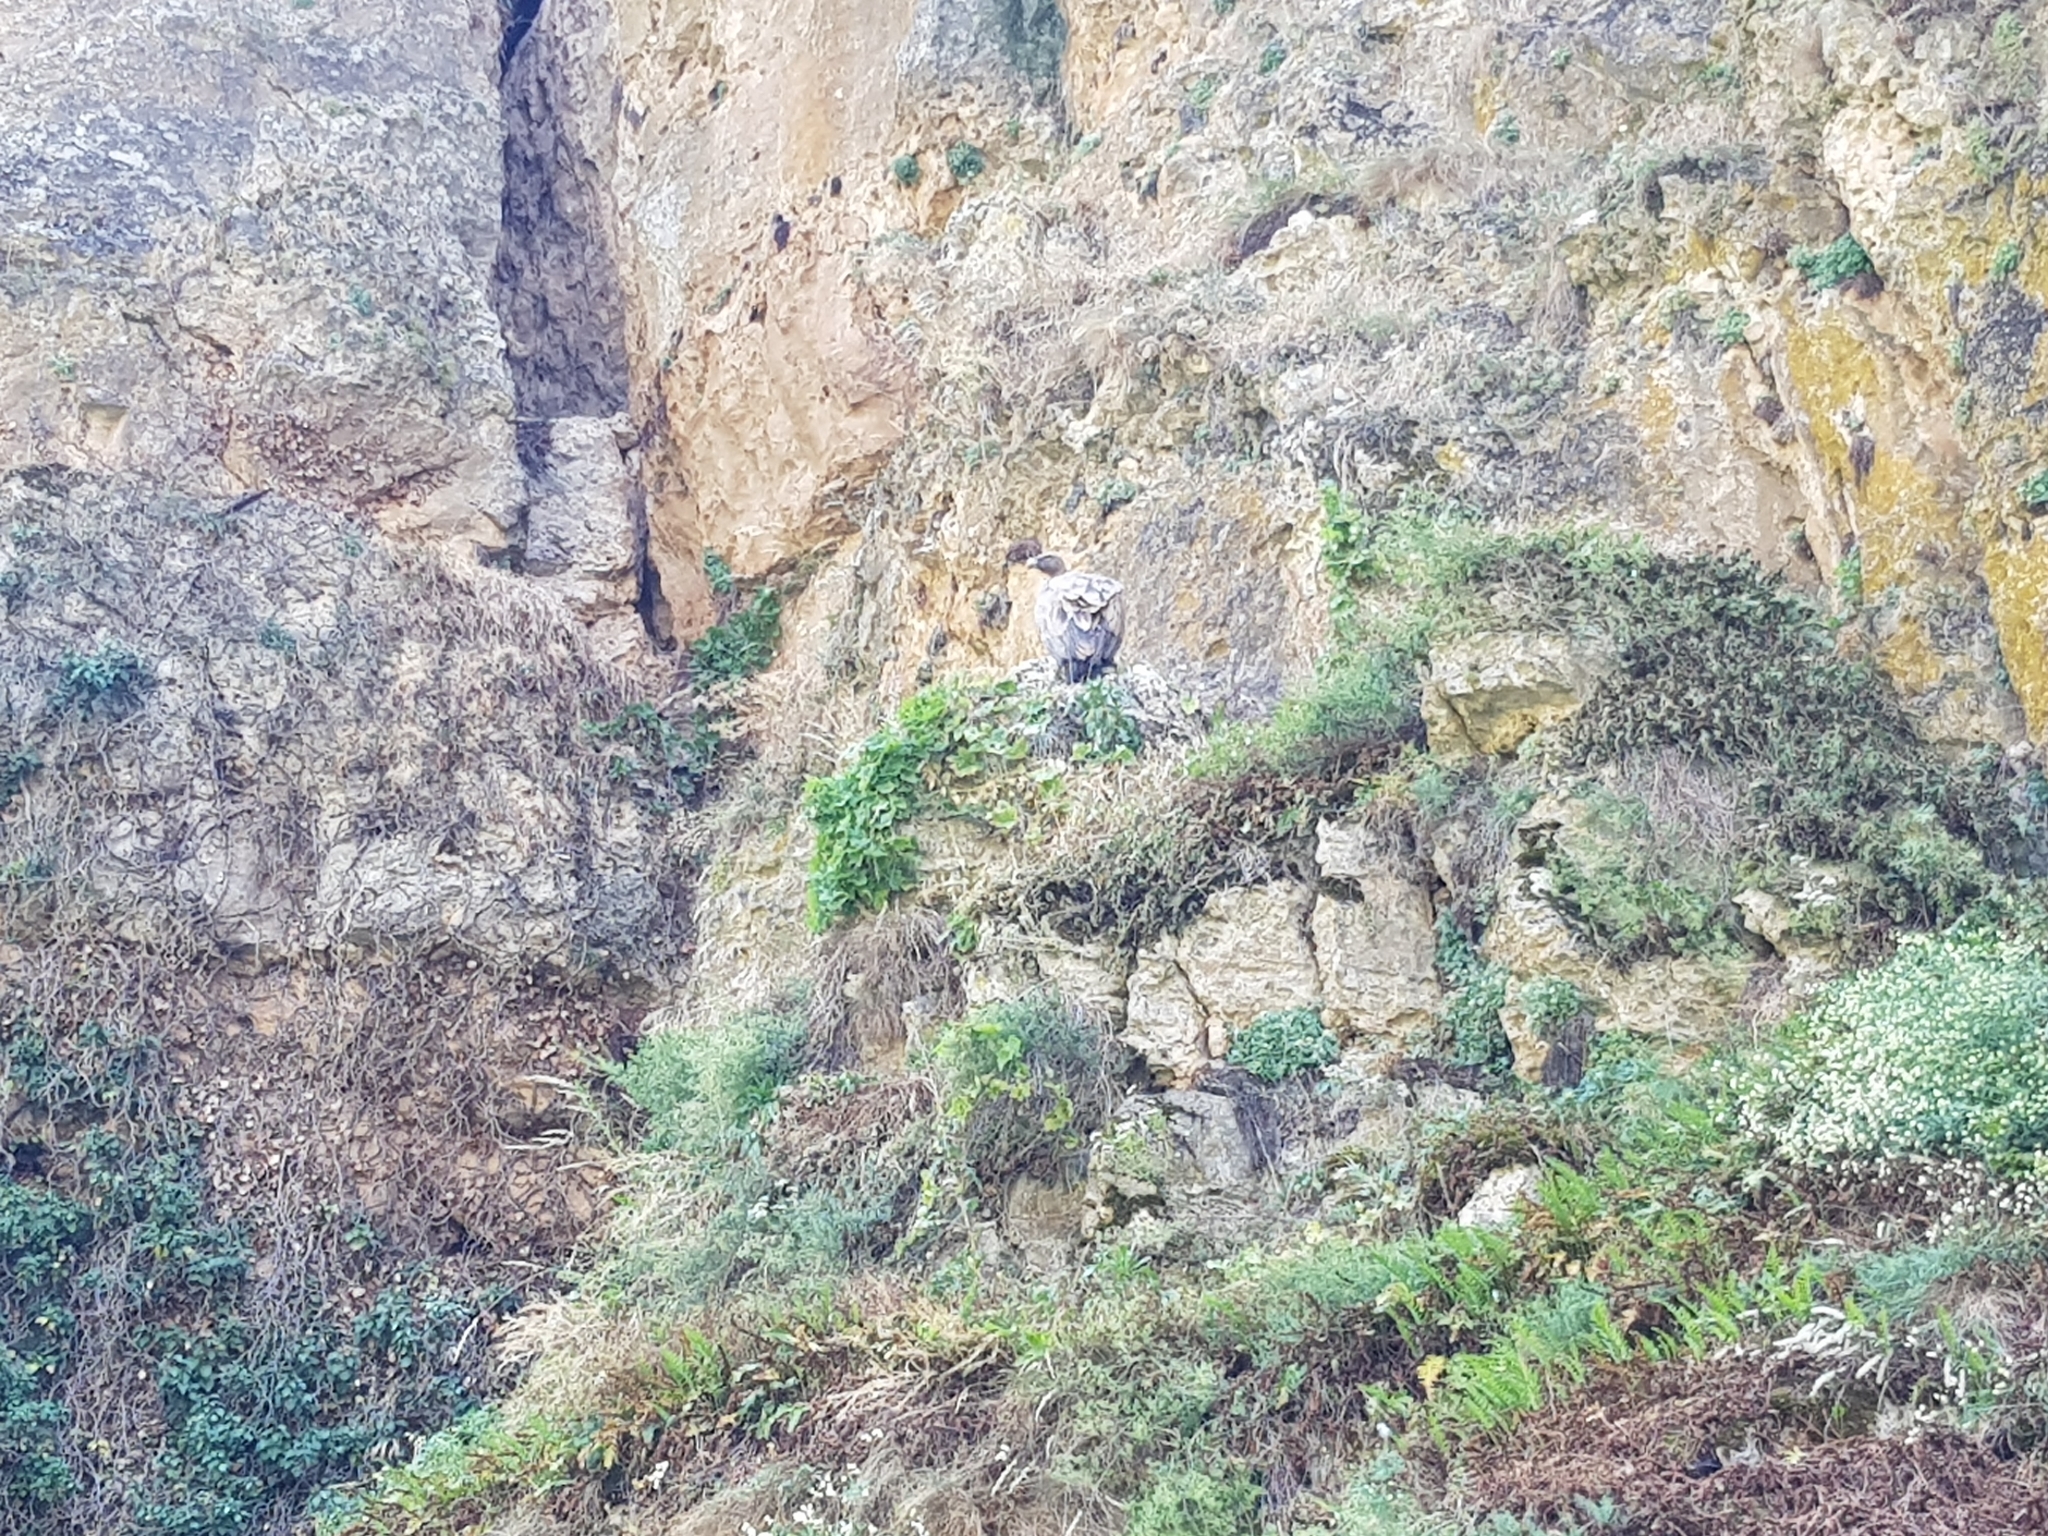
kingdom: Animalia
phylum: Chordata
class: Aves
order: Accipitriformes
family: Accipitridae
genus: Gyps
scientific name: Gyps fulvus
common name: Griffon vulture
